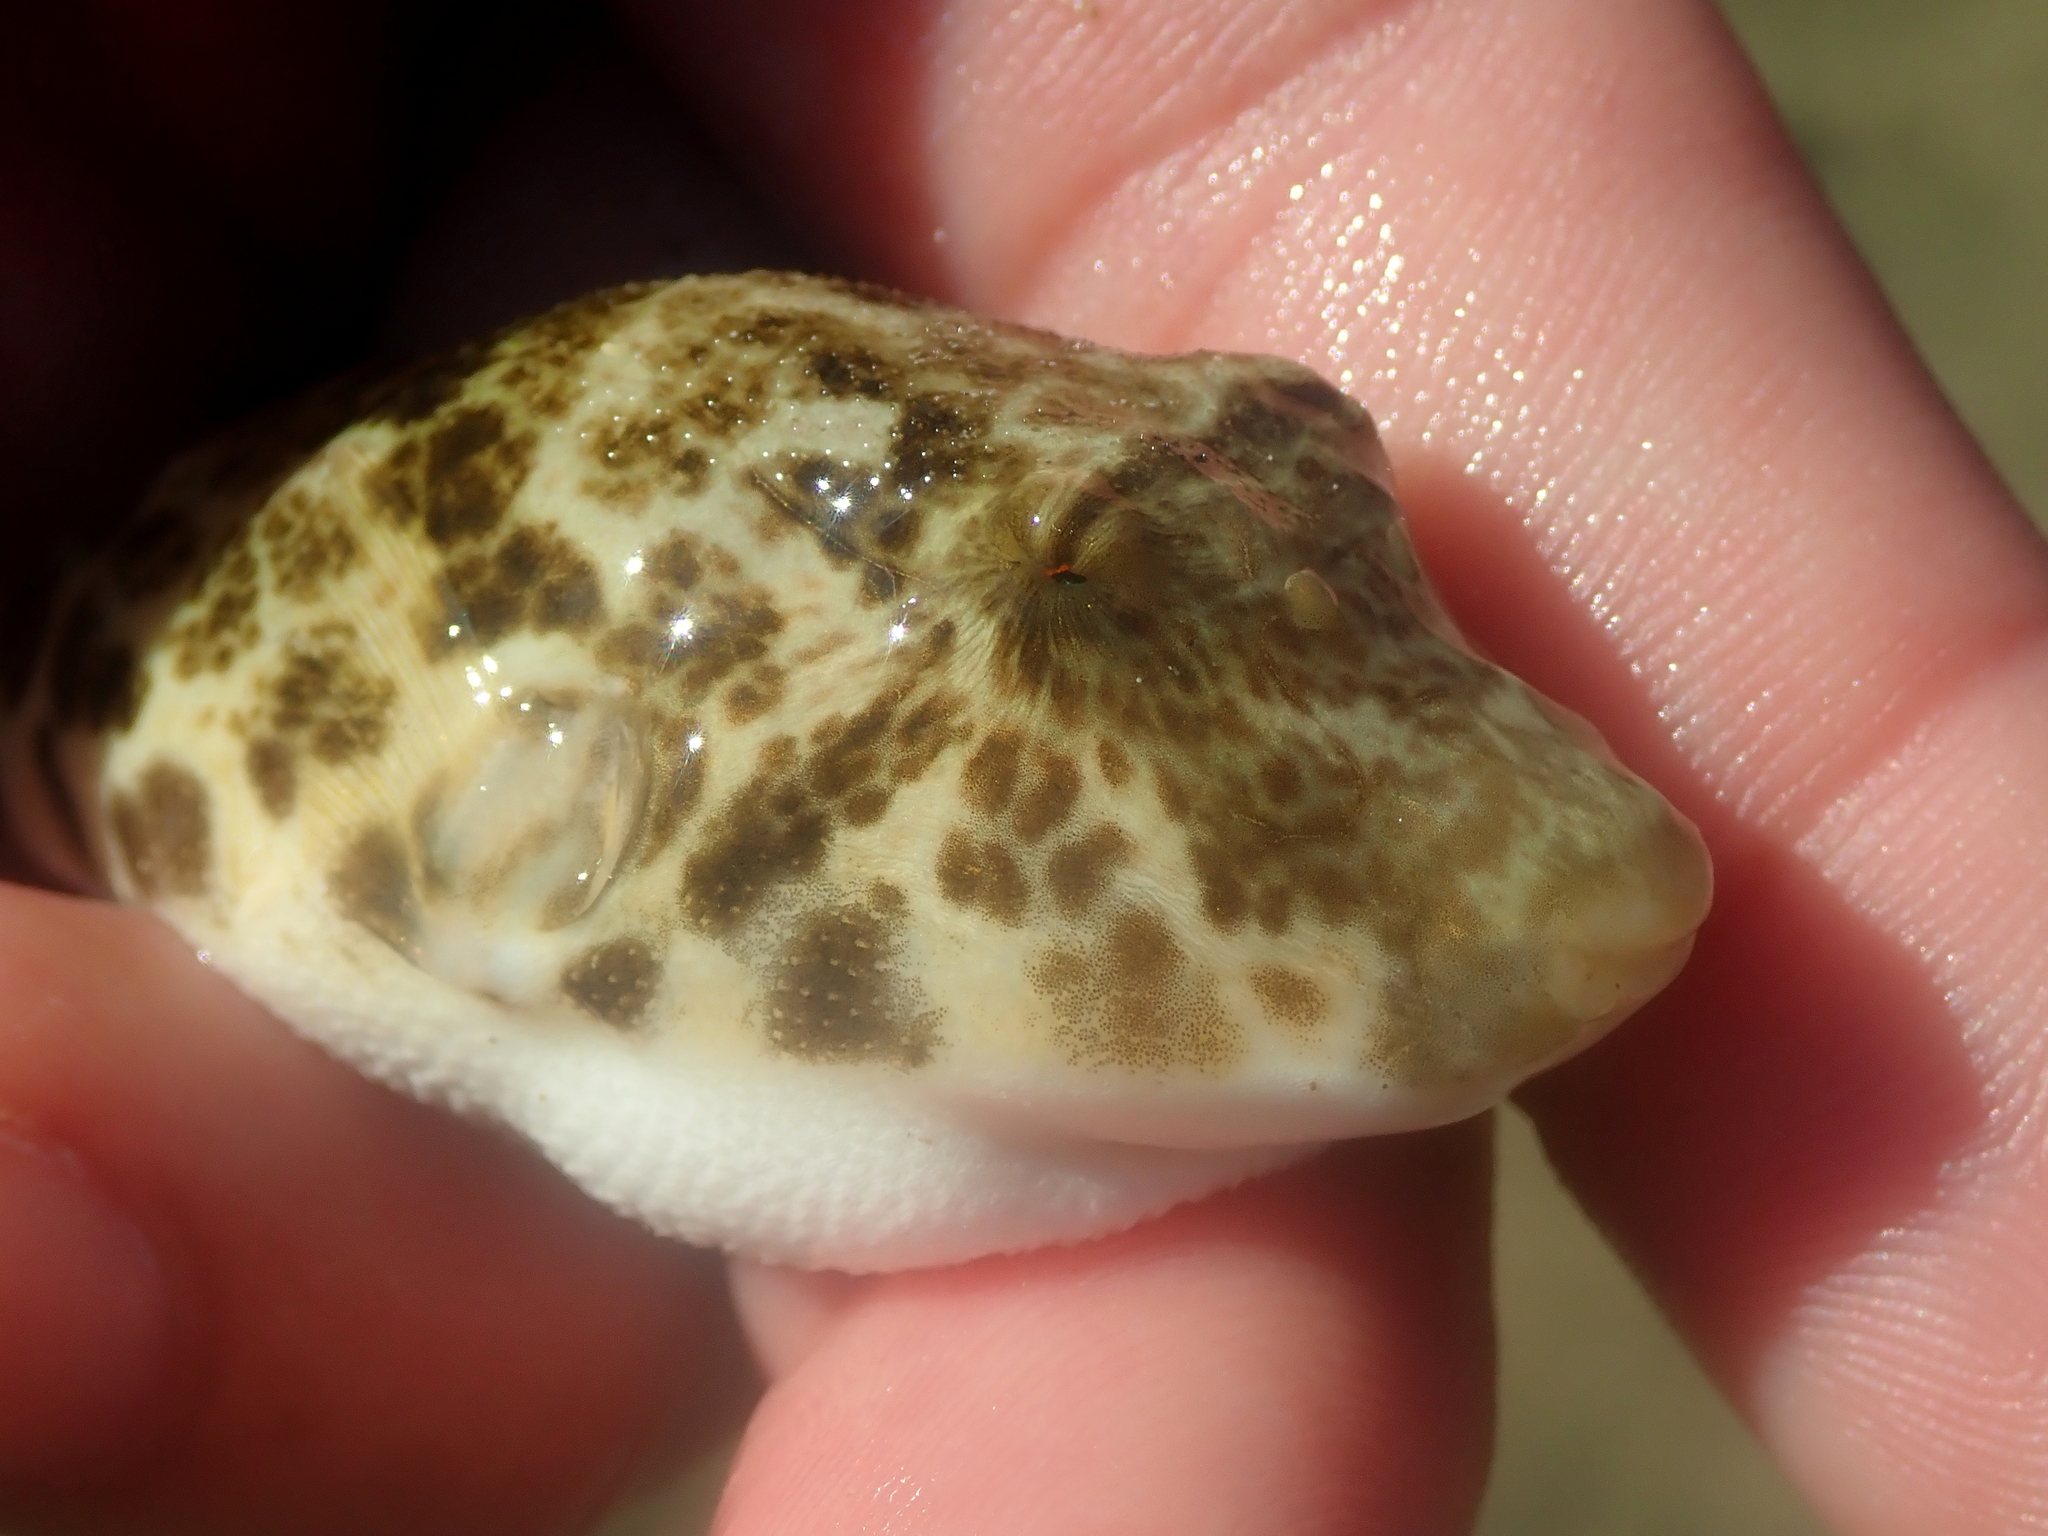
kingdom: Animalia
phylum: Chordata
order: Tetraodontiformes
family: Tetraodontidae
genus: Sphoeroides
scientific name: Sphoeroides greeleyi
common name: Green puffer
